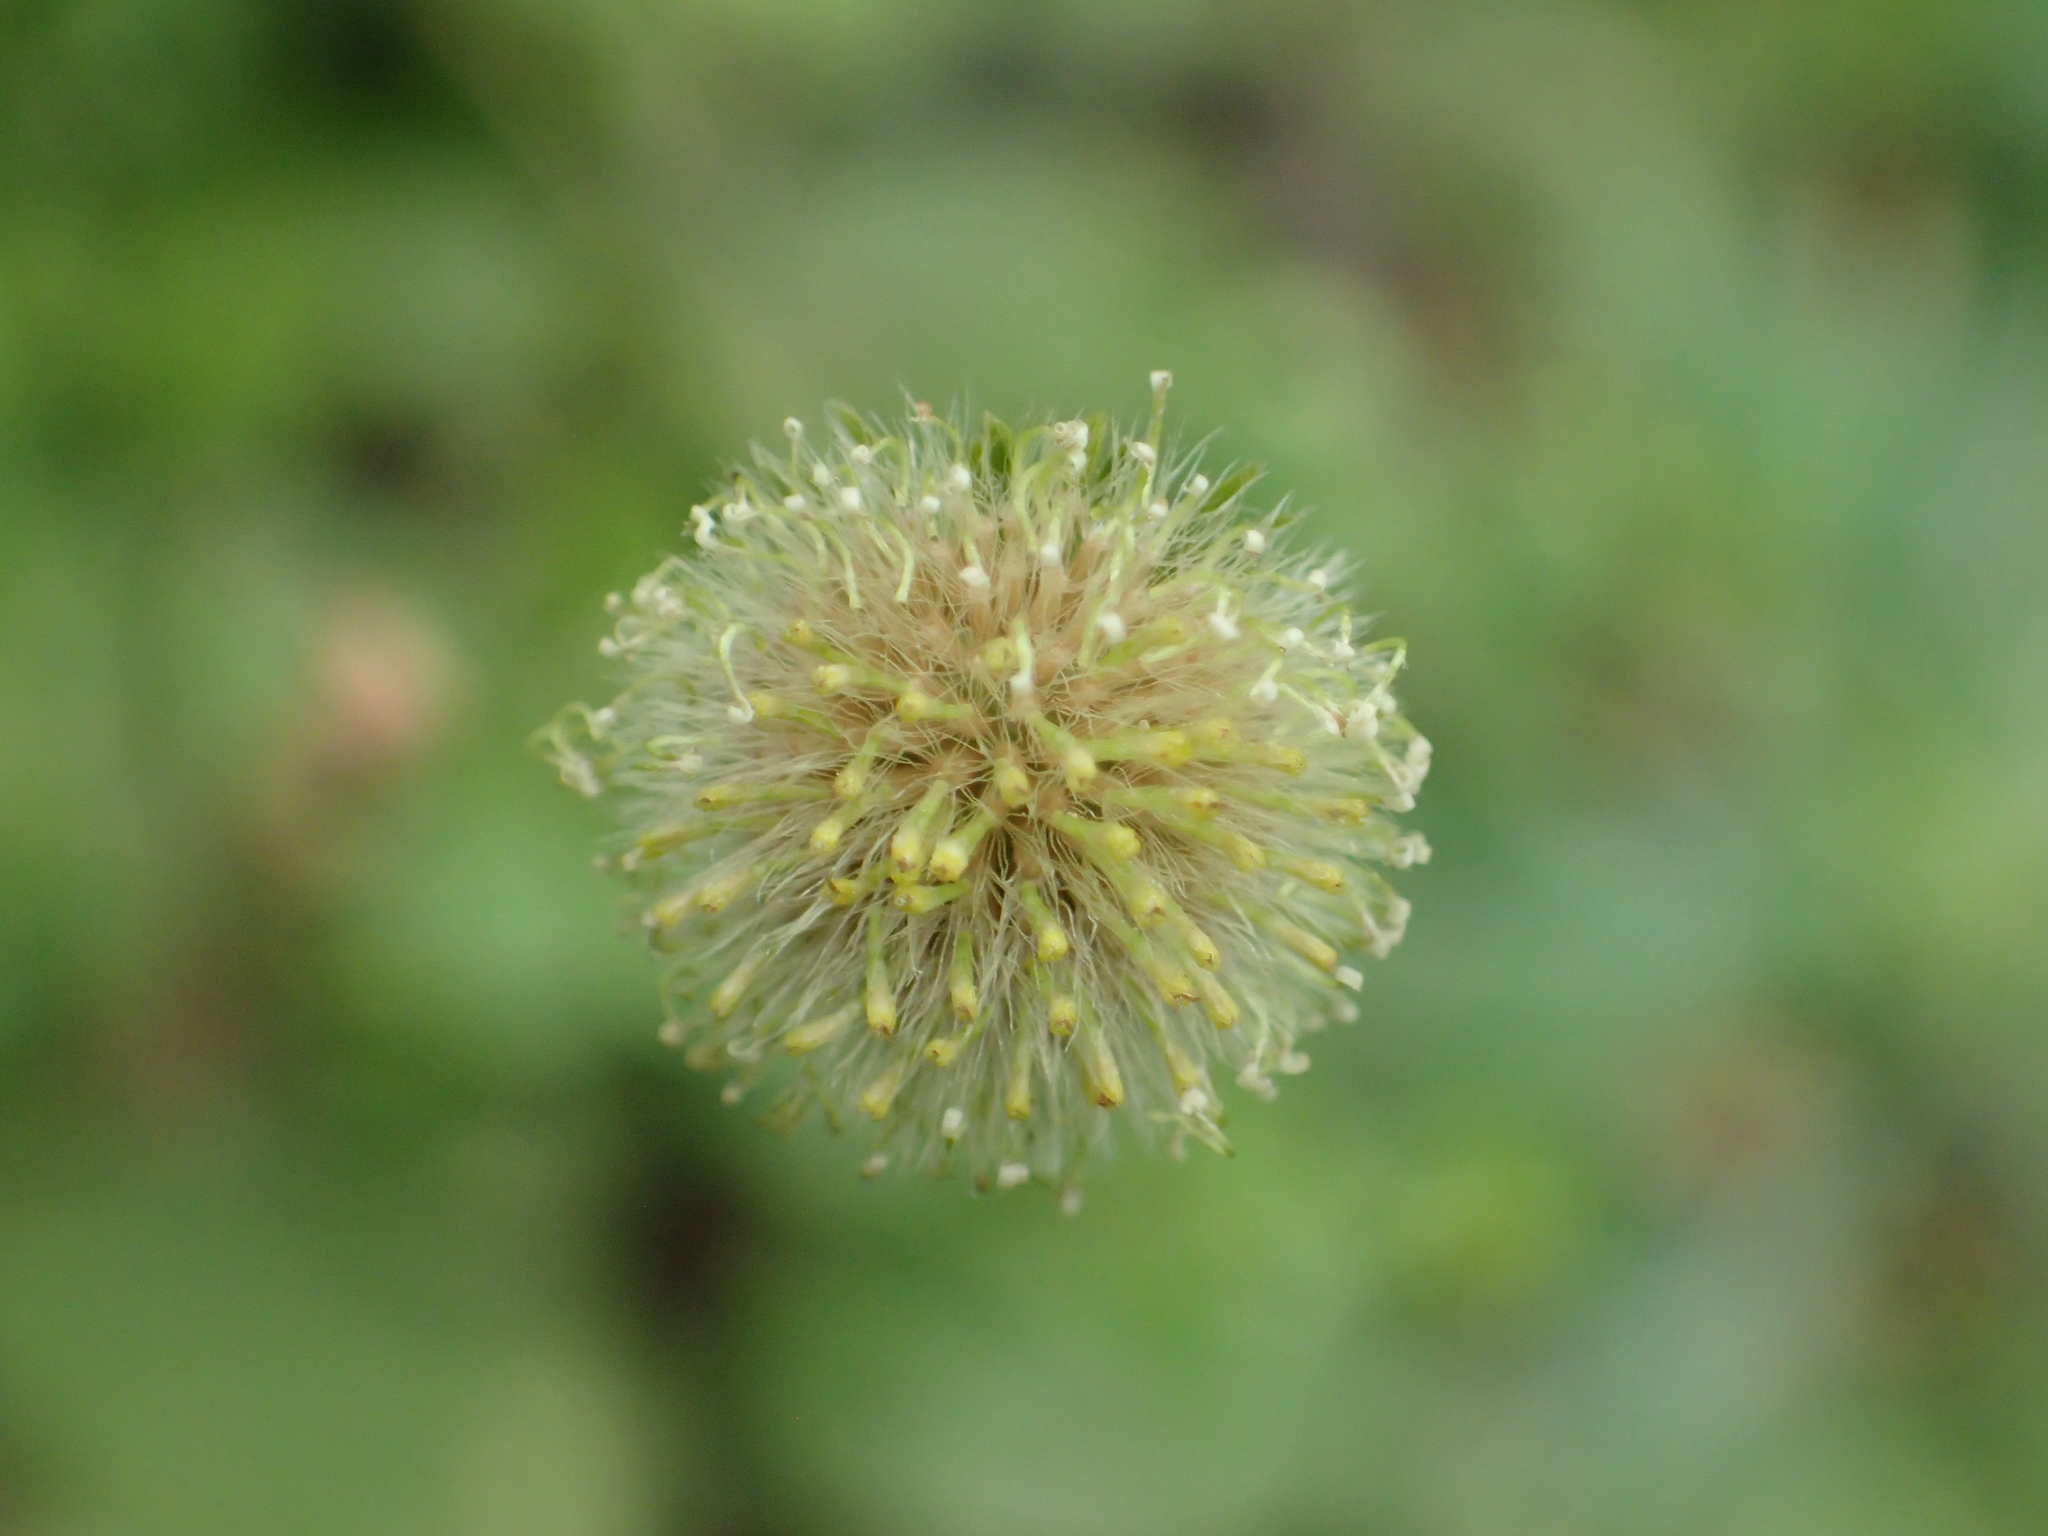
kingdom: Plantae
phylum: Tracheophyta
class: Magnoliopsida
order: Asterales
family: Asteraceae
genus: Erigeron
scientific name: Erigeron bellioides
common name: Bellorita
